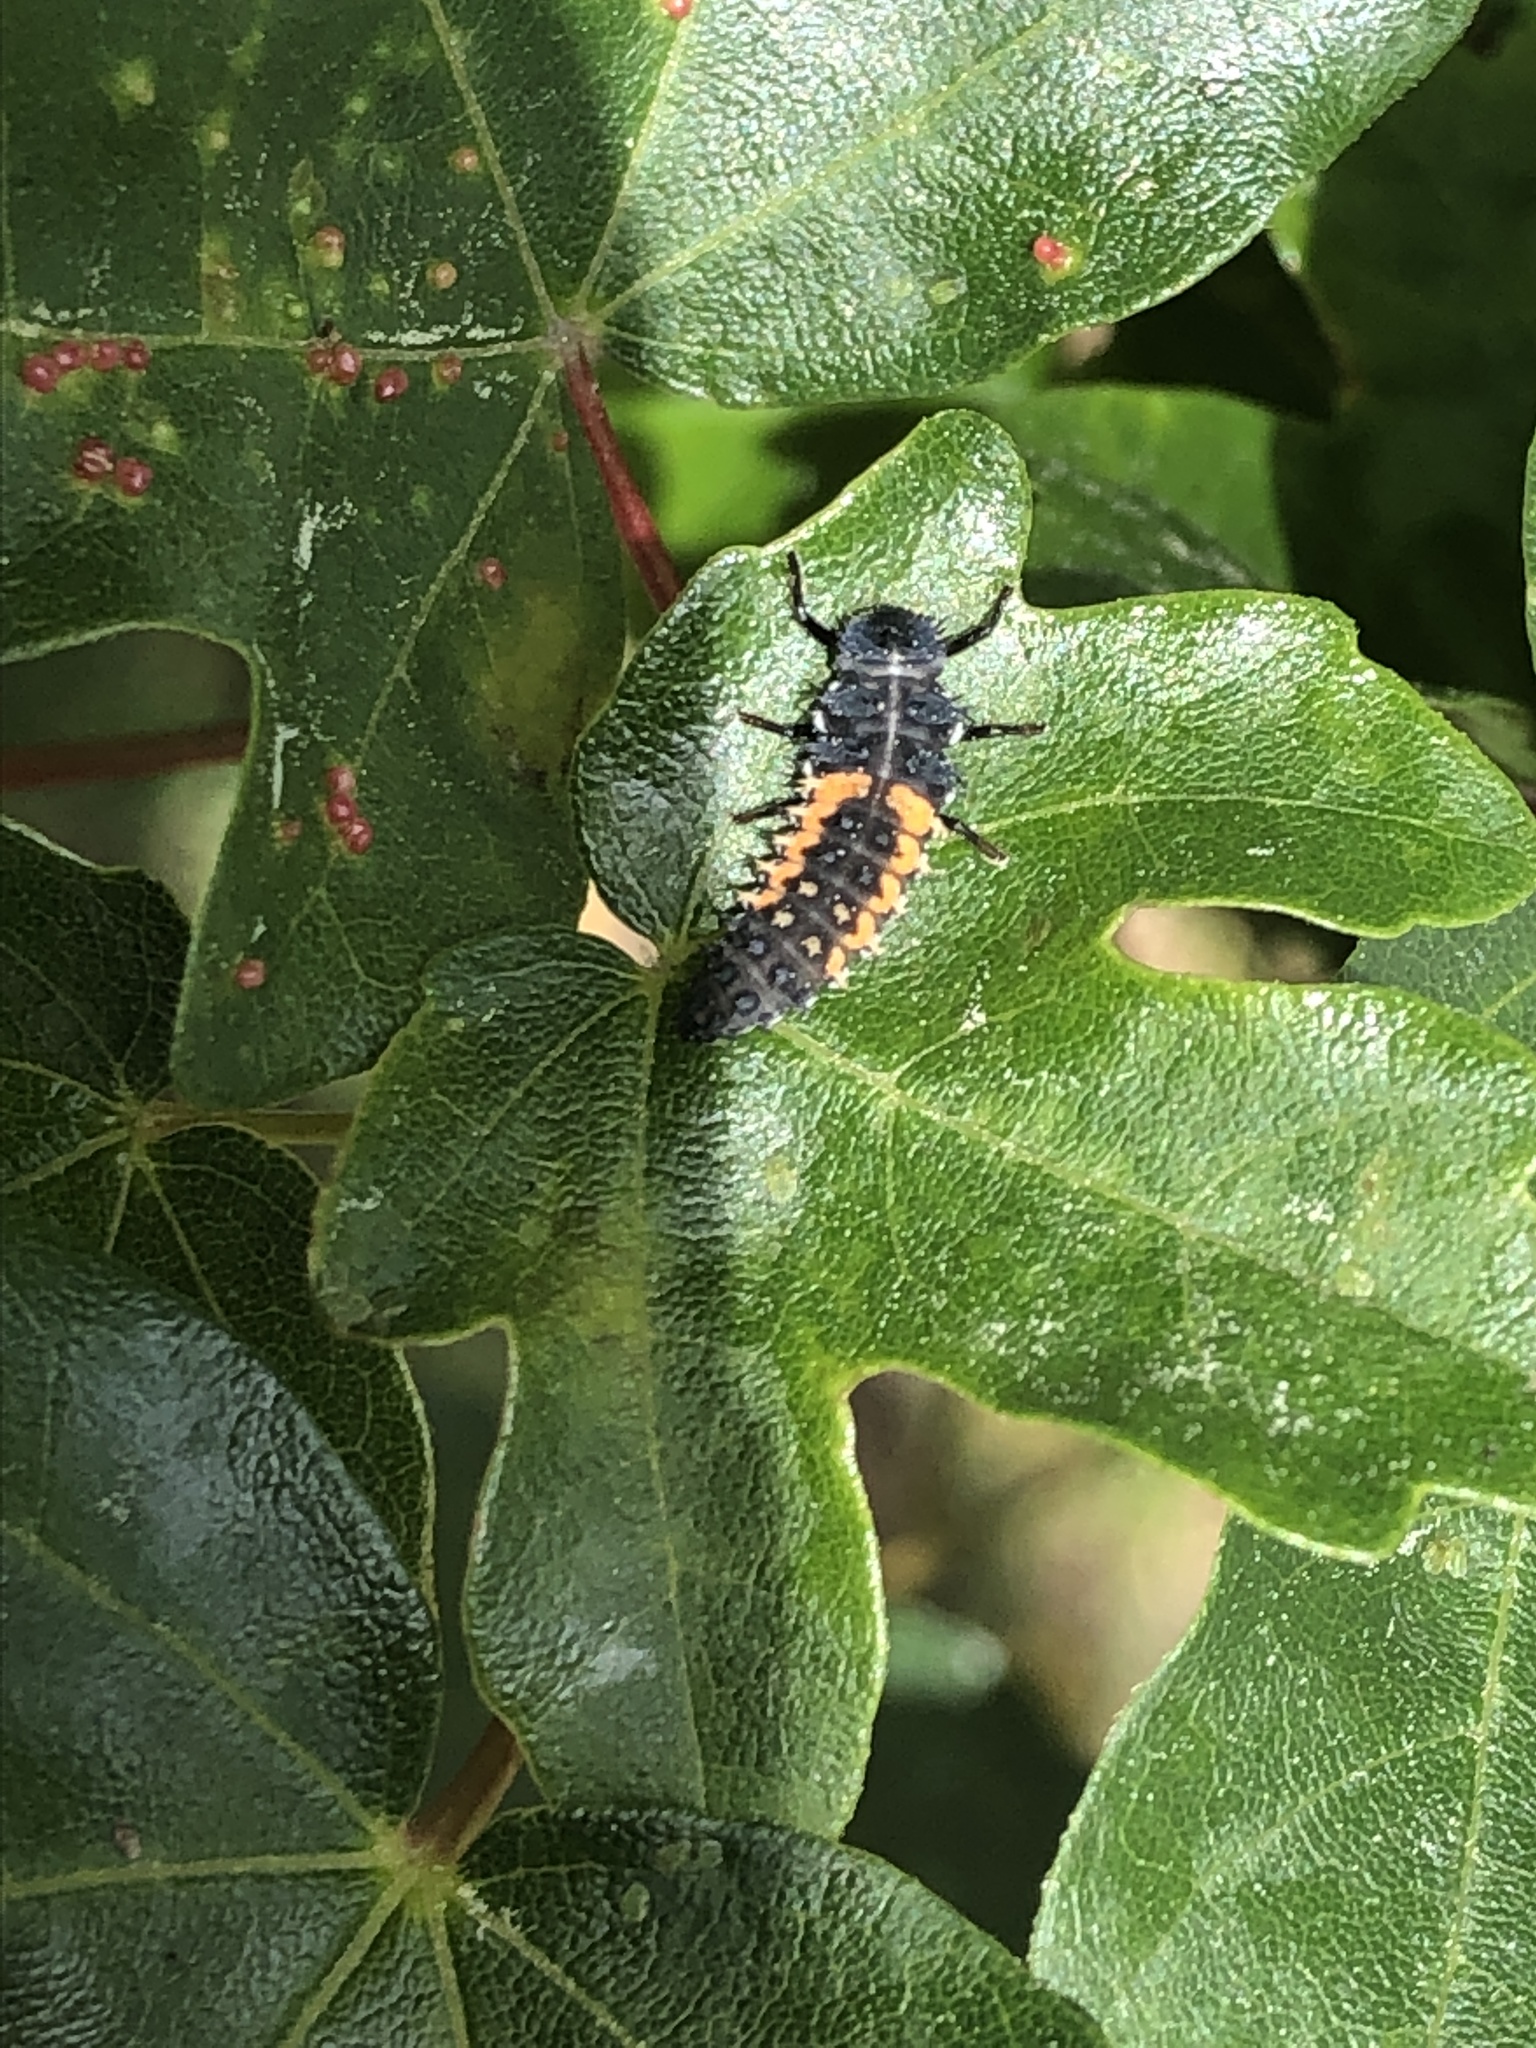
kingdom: Animalia
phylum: Arthropoda
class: Insecta
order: Coleoptera
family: Coccinellidae
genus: Harmonia
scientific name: Harmonia axyridis
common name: Harlequin ladybird
